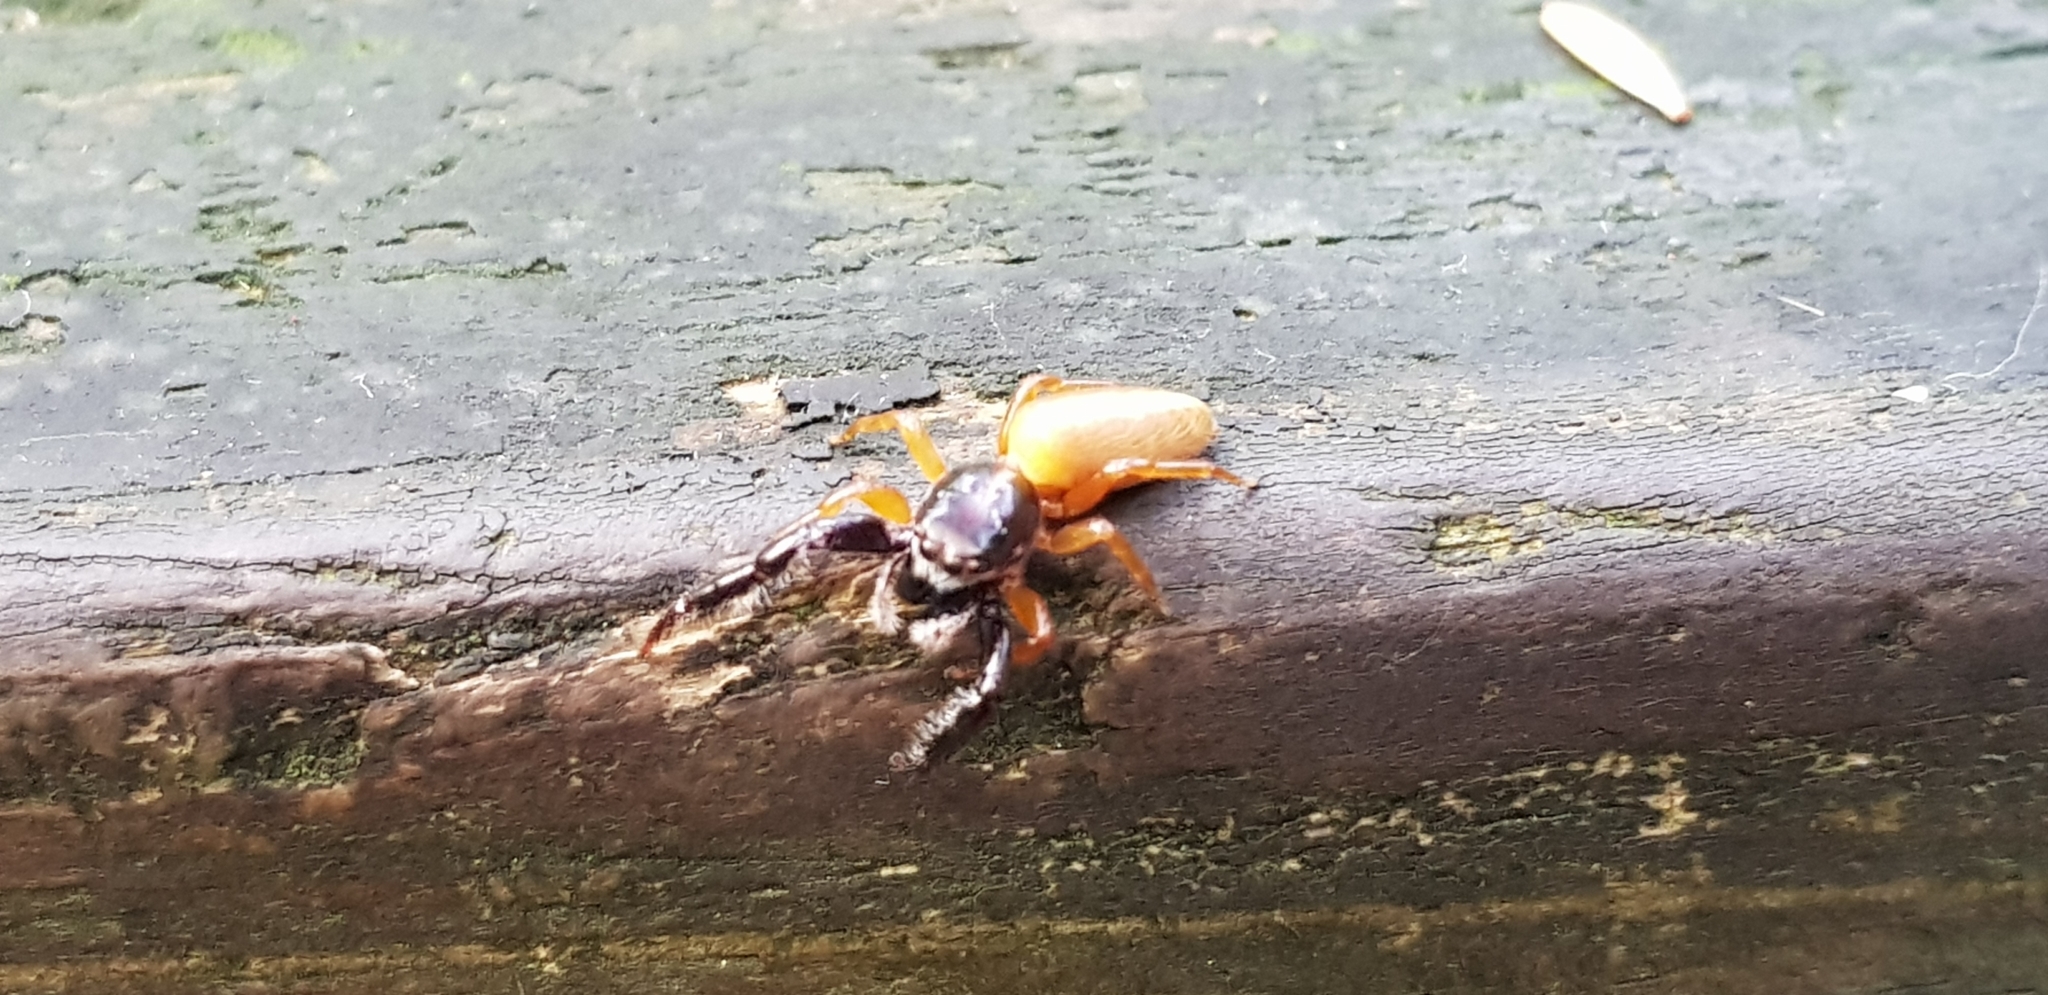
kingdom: Animalia
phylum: Arthropoda
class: Arachnida
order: Araneae
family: Salticidae
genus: Trite
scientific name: Trite planiceps
